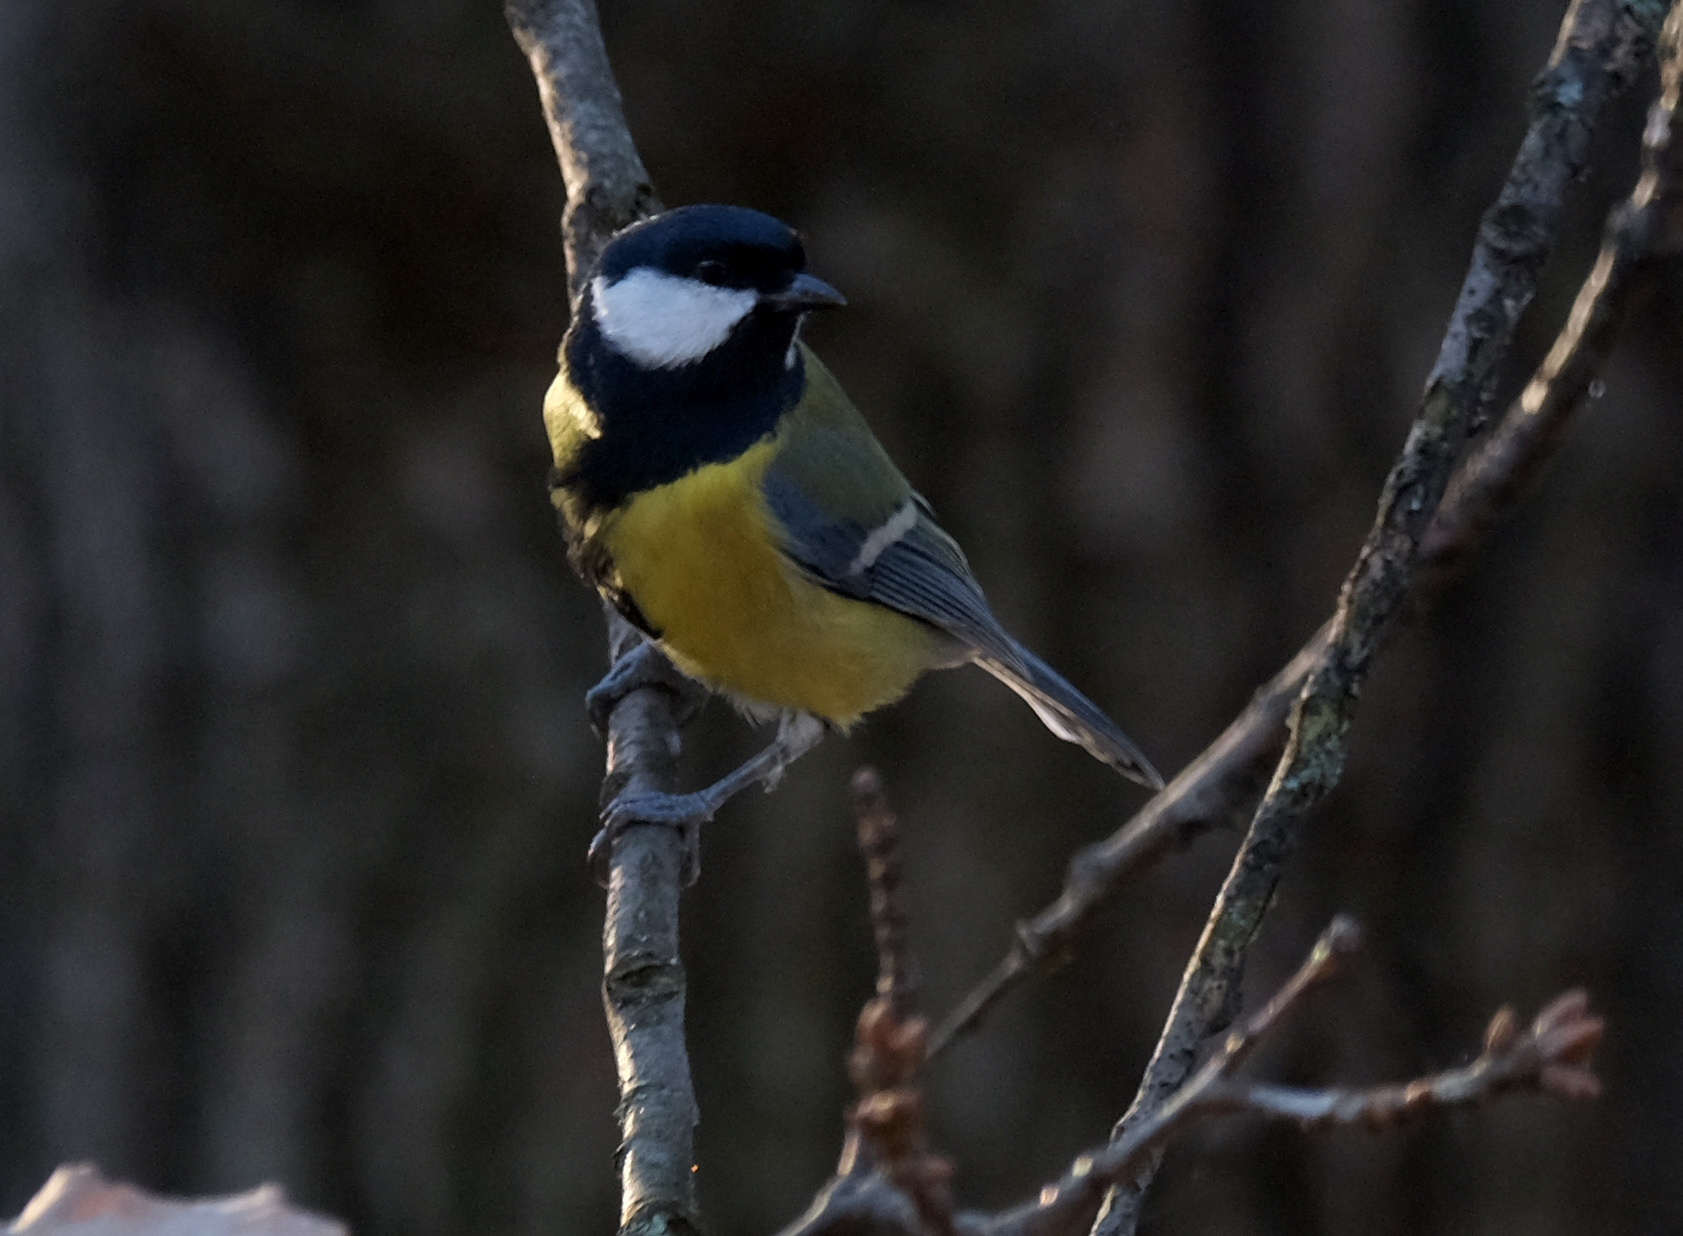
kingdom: Animalia
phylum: Chordata
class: Aves
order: Passeriformes
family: Paridae
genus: Parus
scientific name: Parus major
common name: Great tit
